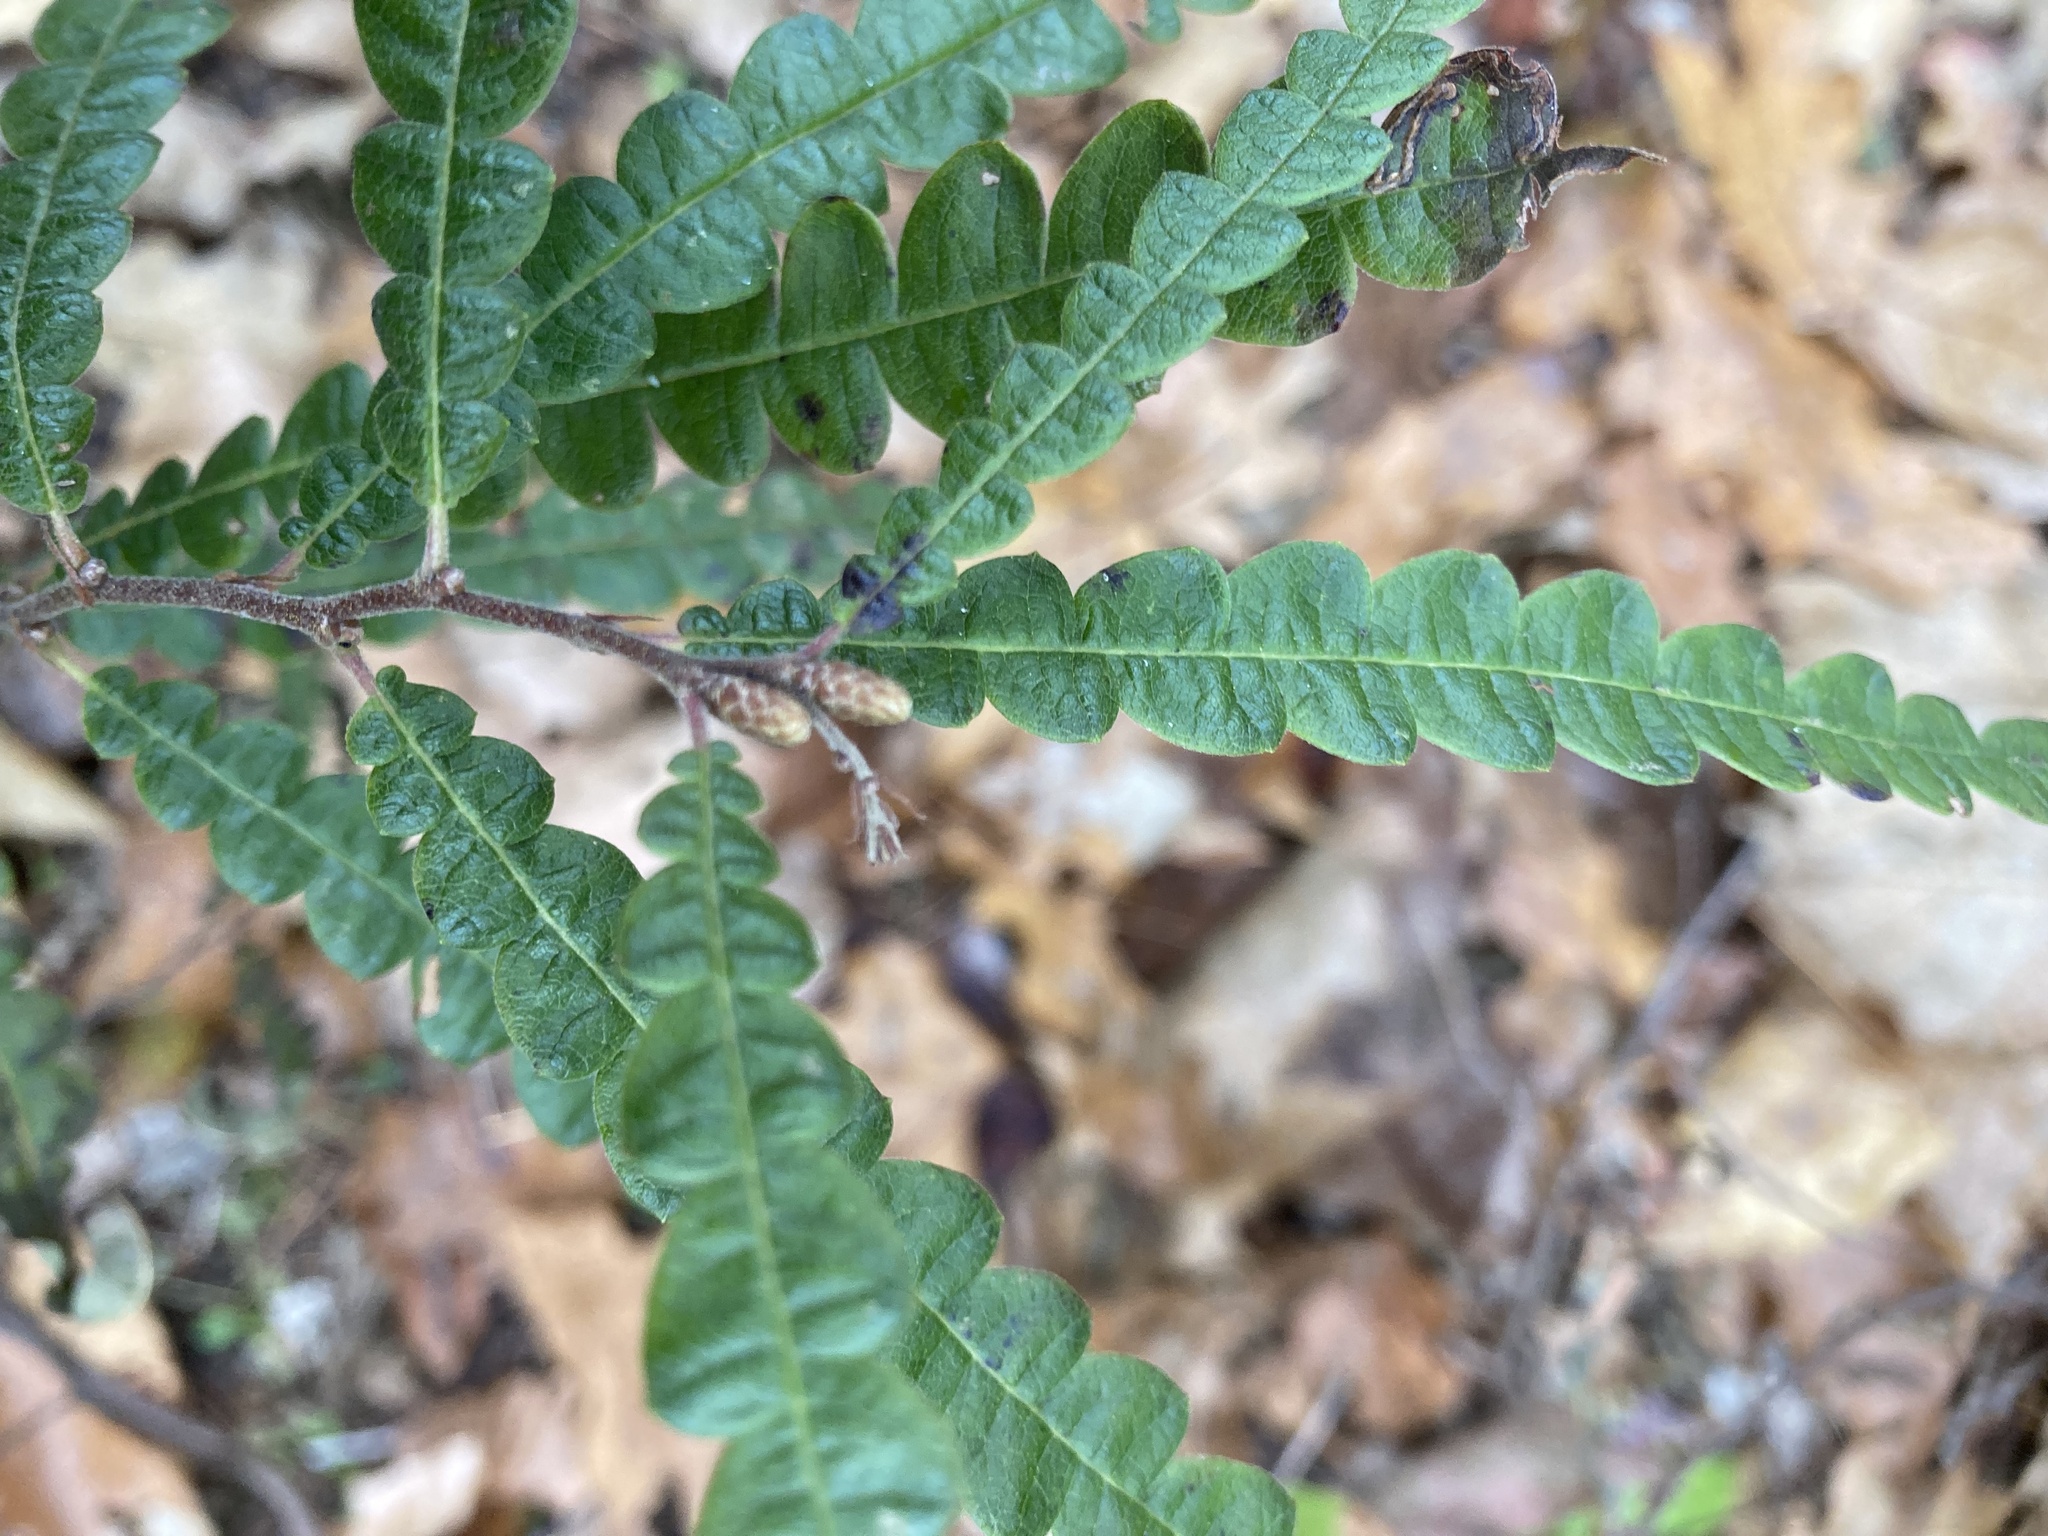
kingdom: Plantae
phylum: Tracheophyta
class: Magnoliopsida
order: Fagales
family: Myricaceae
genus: Comptonia
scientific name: Comptonia peregrina
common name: Sweet-fern
